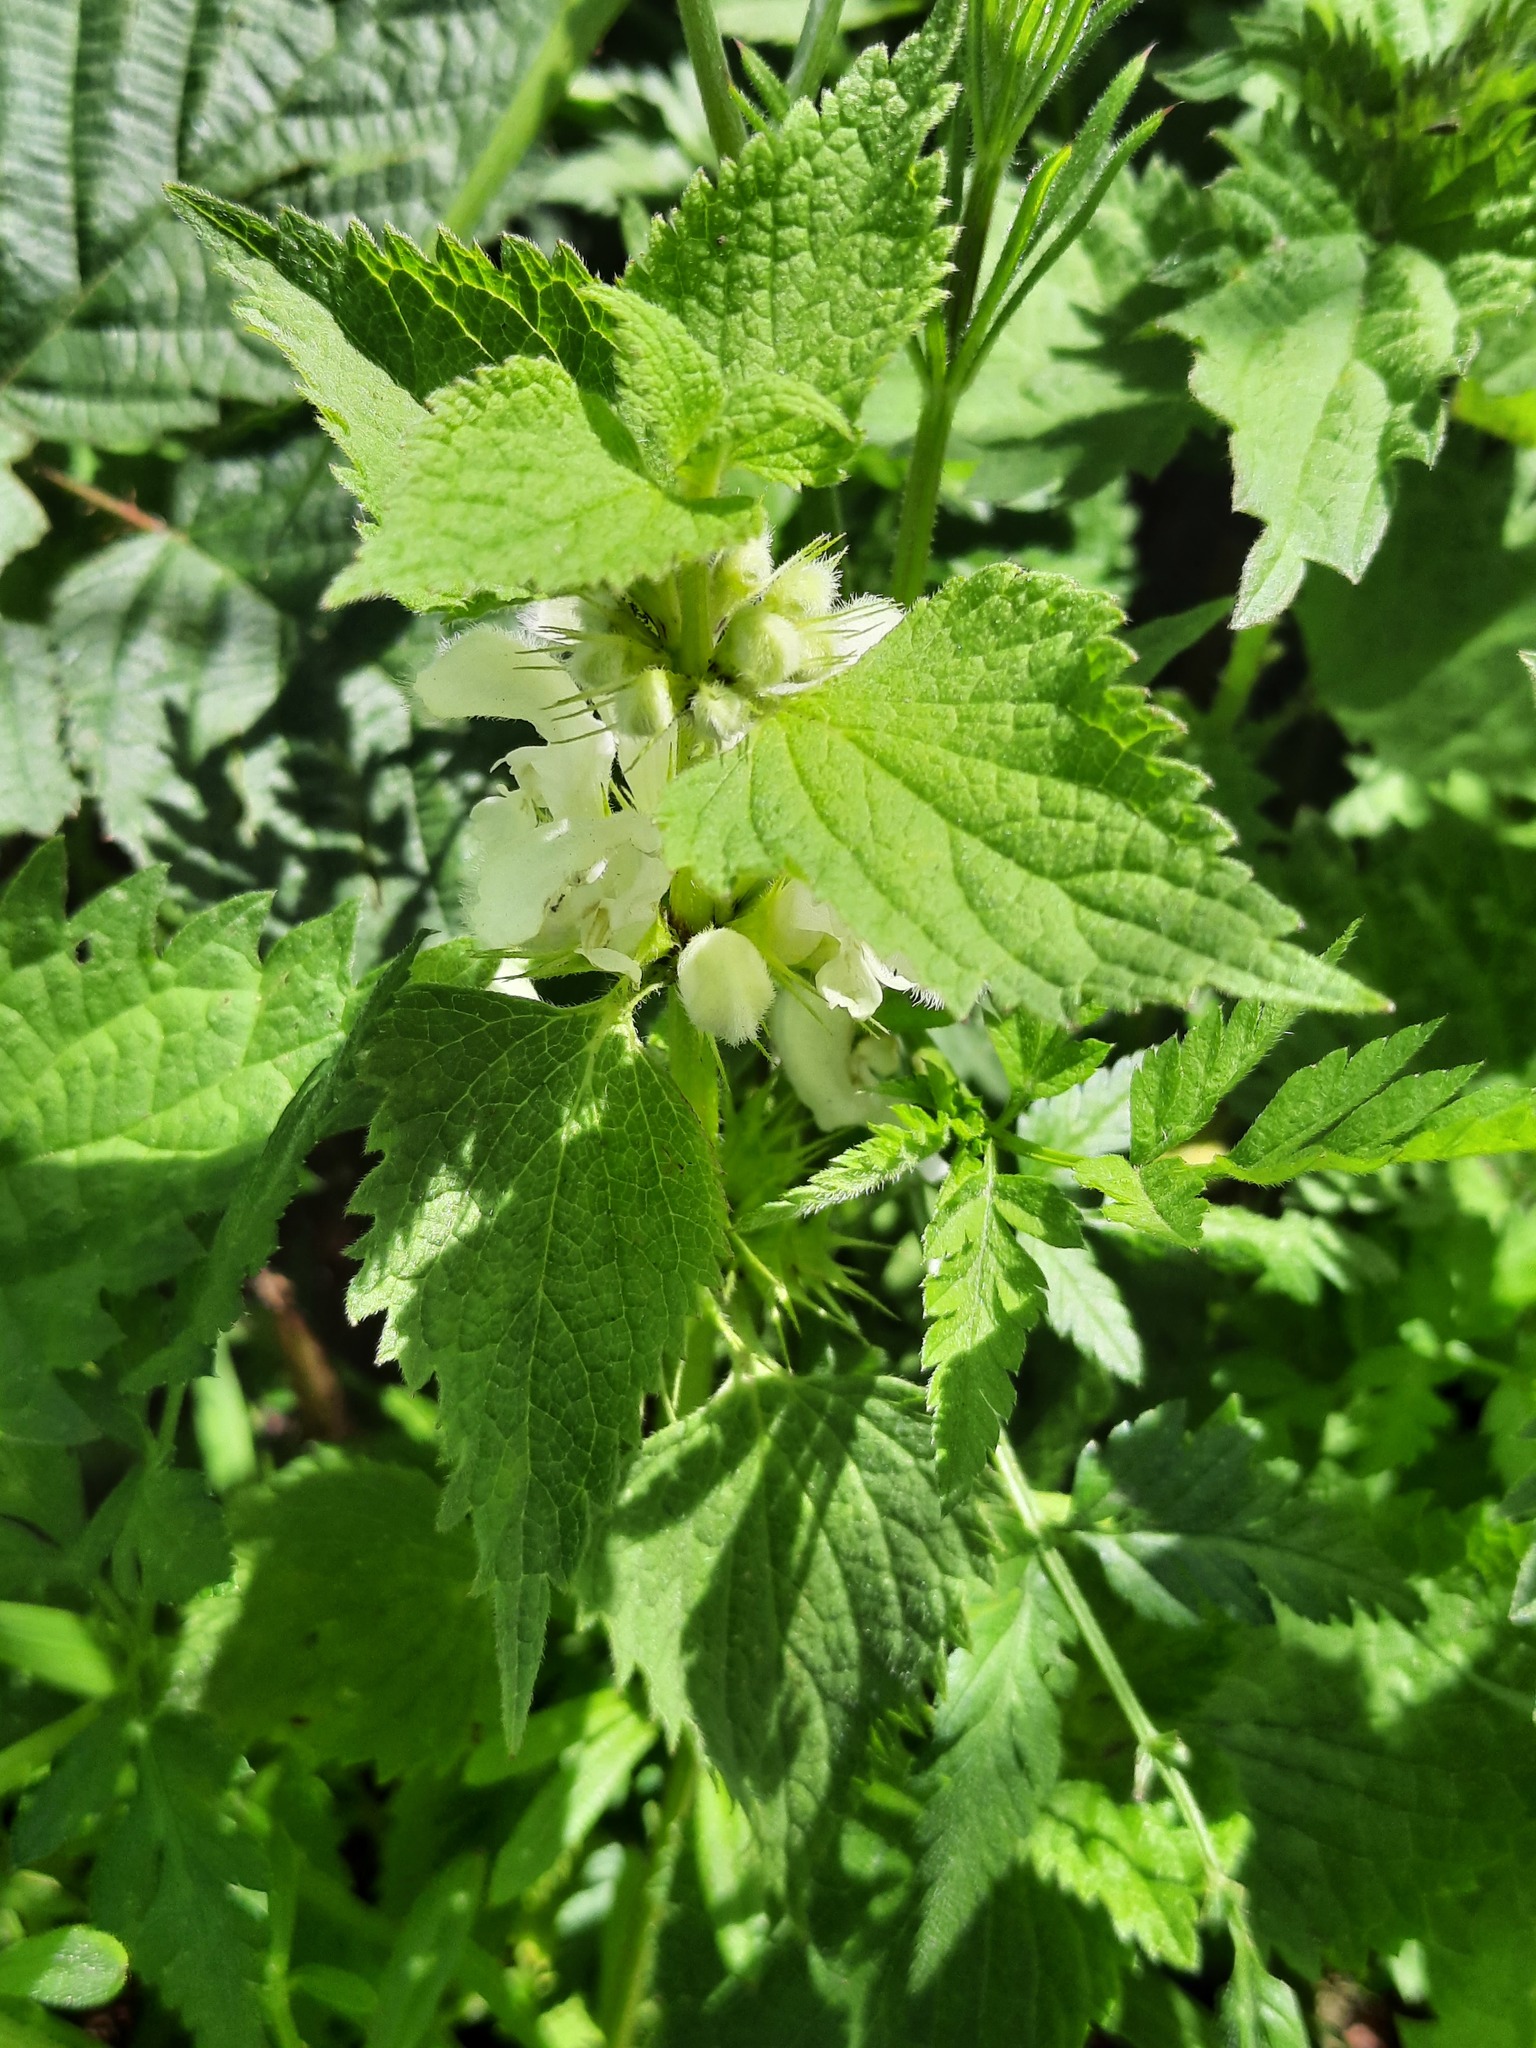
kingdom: Plantae
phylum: Tracheophyta
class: Magnoliopsida
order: Lamiales
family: Lamiaceae
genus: Lamium
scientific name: Lamium album
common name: White dead-nettle
